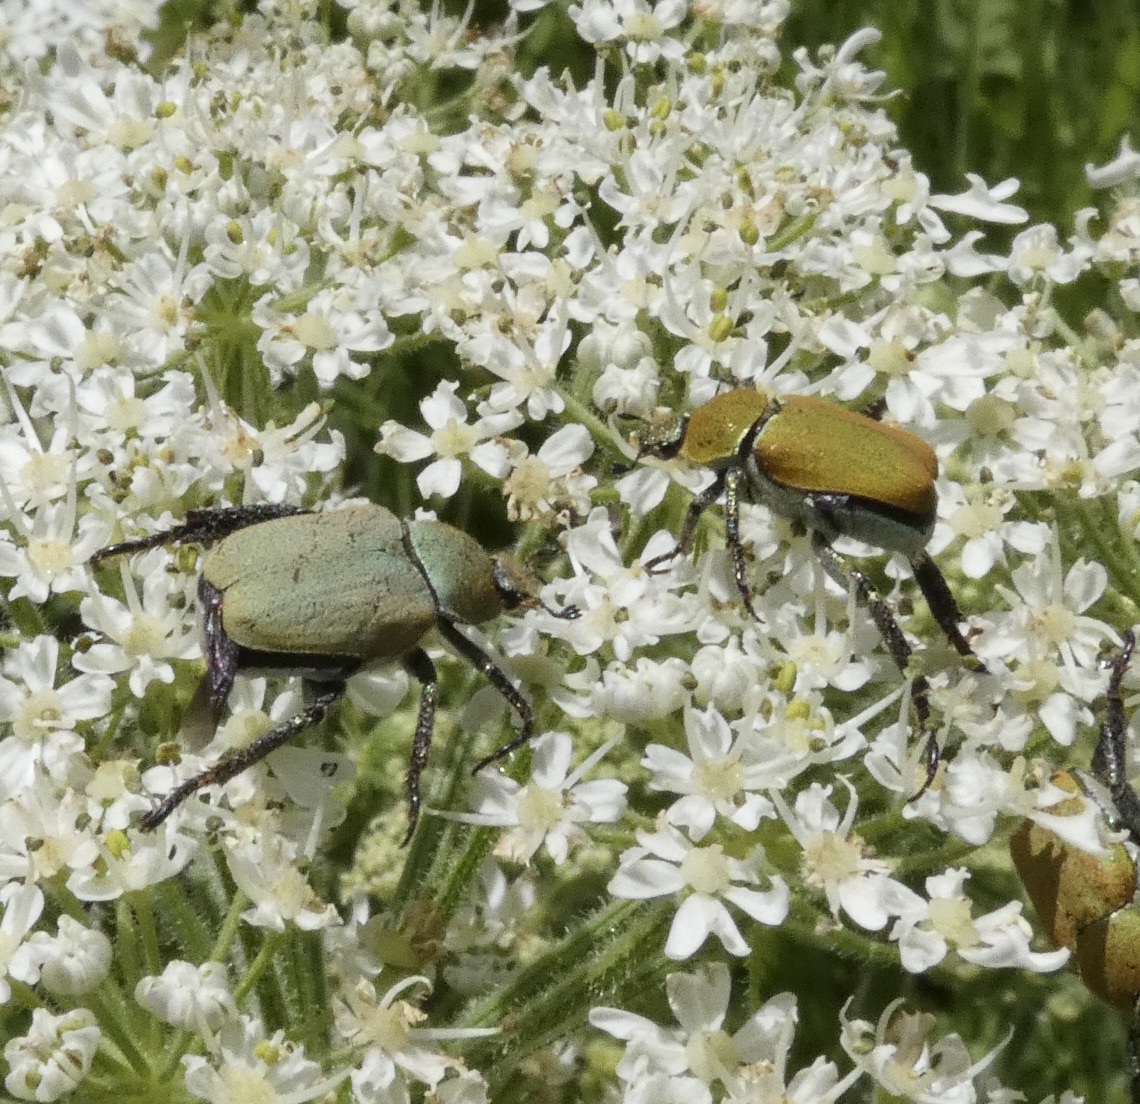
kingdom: Animalia
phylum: Arthropoda
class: Insecta
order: Coleoptera
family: Scarabaeidae
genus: Hoplia
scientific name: Hoplia argentea
